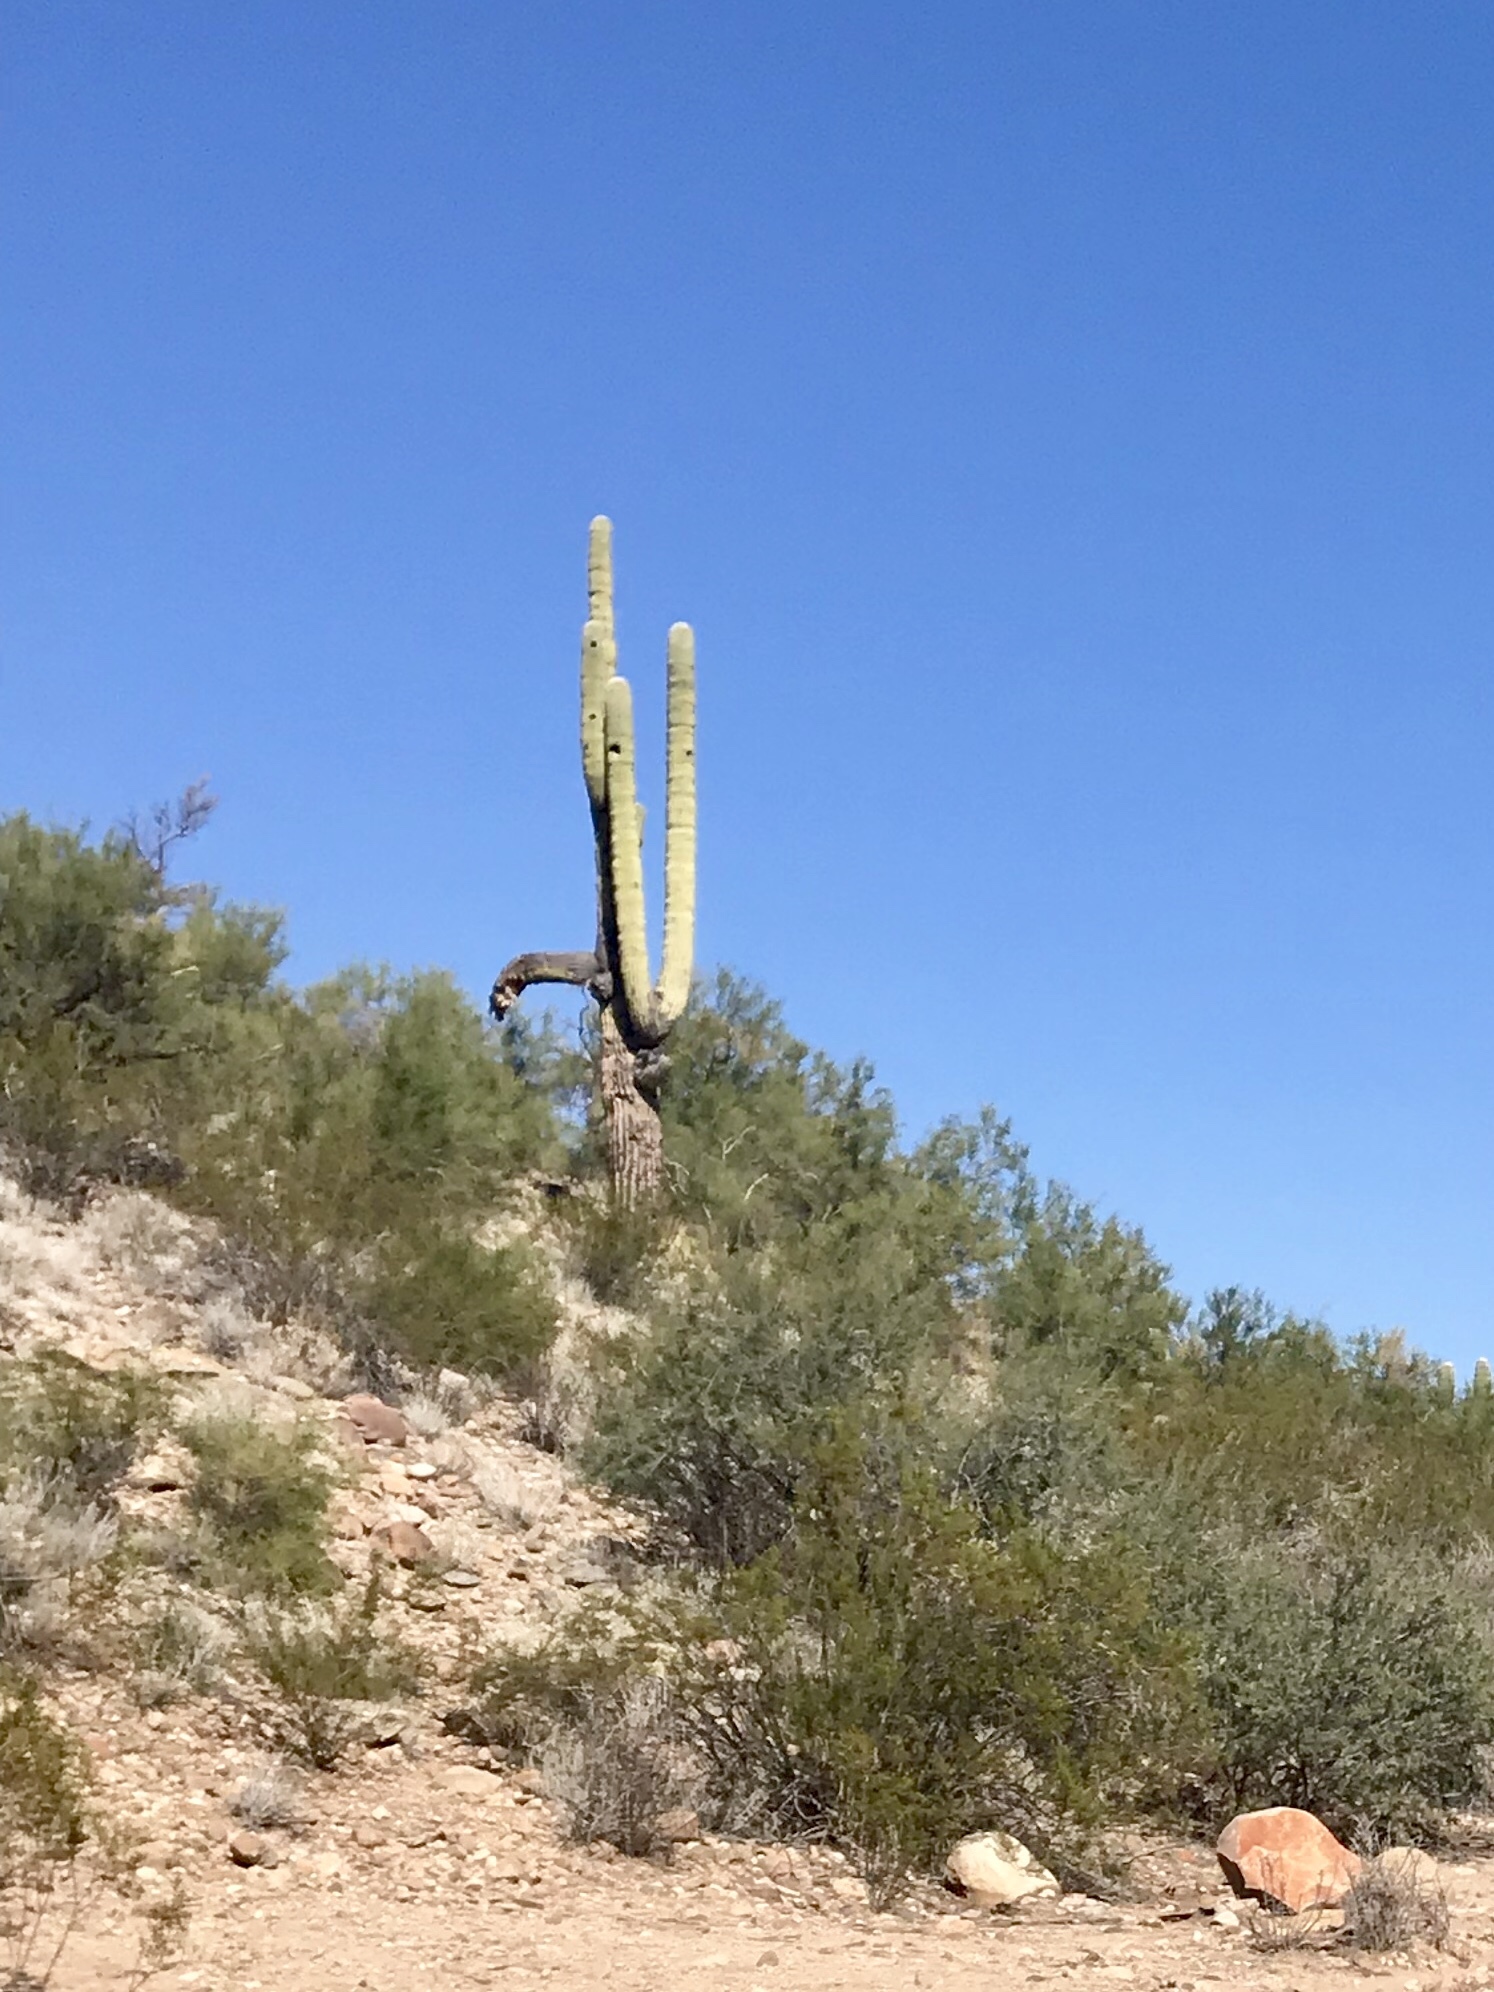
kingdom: Plantae
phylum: Tracheophyta
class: Magnoliopsida
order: Caryophyllales
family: Cactaceae
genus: Carnegiea
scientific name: Carnegiea gigantea
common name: Saguaro
